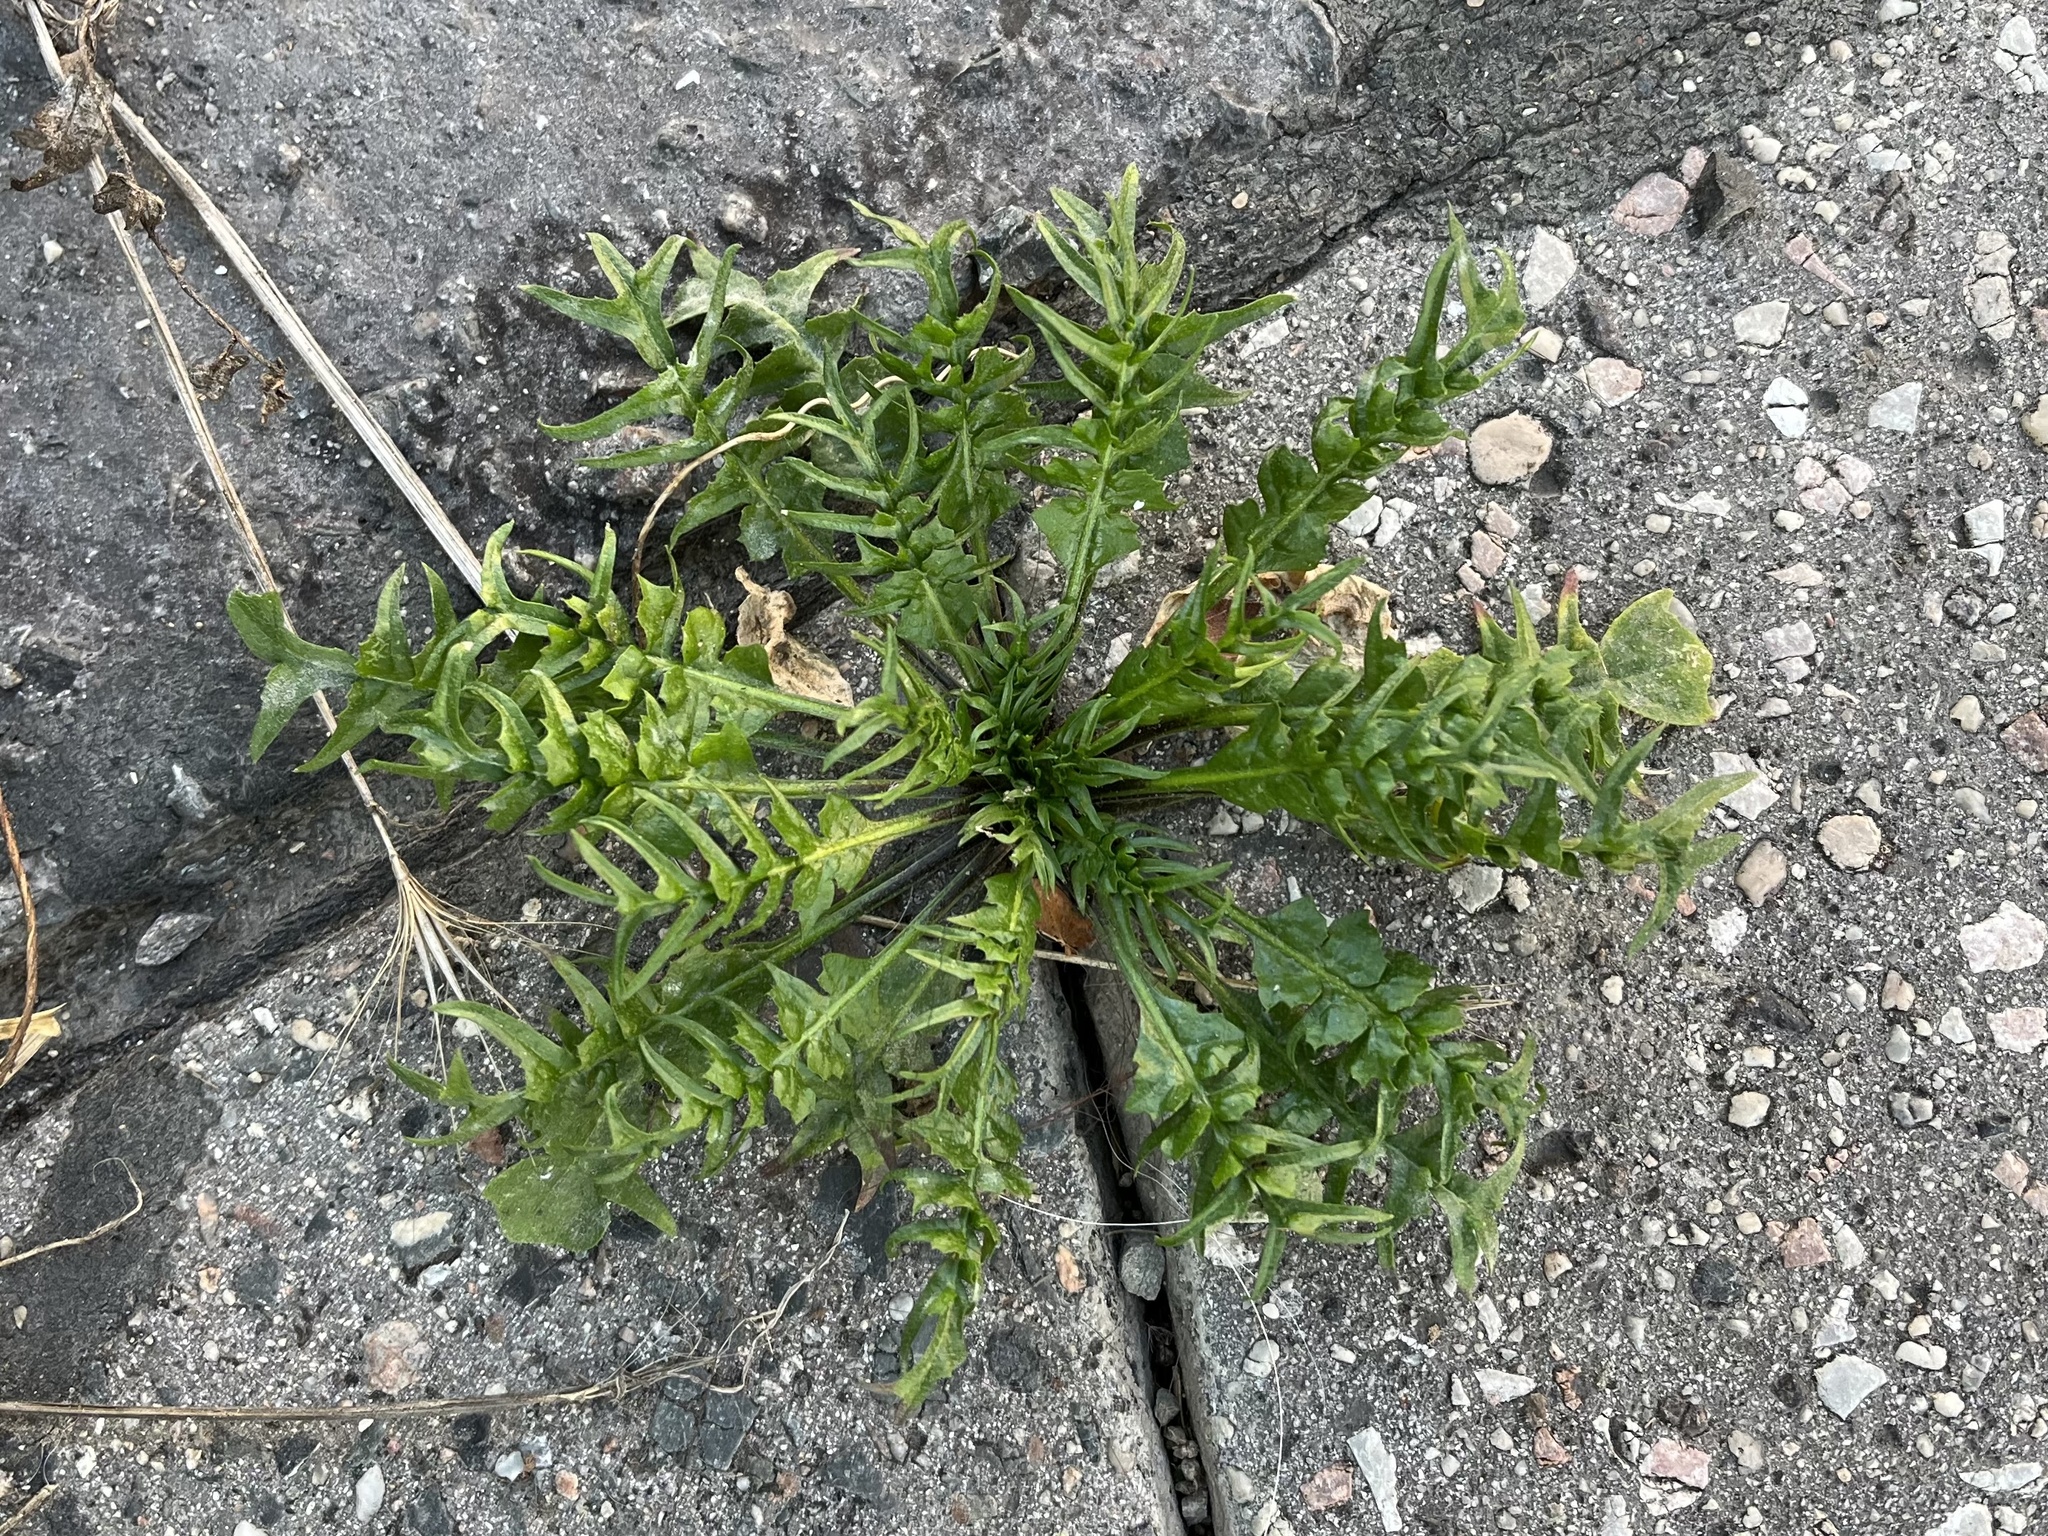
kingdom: Plantae
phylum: Tracheophyta
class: Magnoliopsida
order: Brassicales
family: Brassicaceae
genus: Capsella
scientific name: Capsella bursa-pastoris
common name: Shepherd's purse
